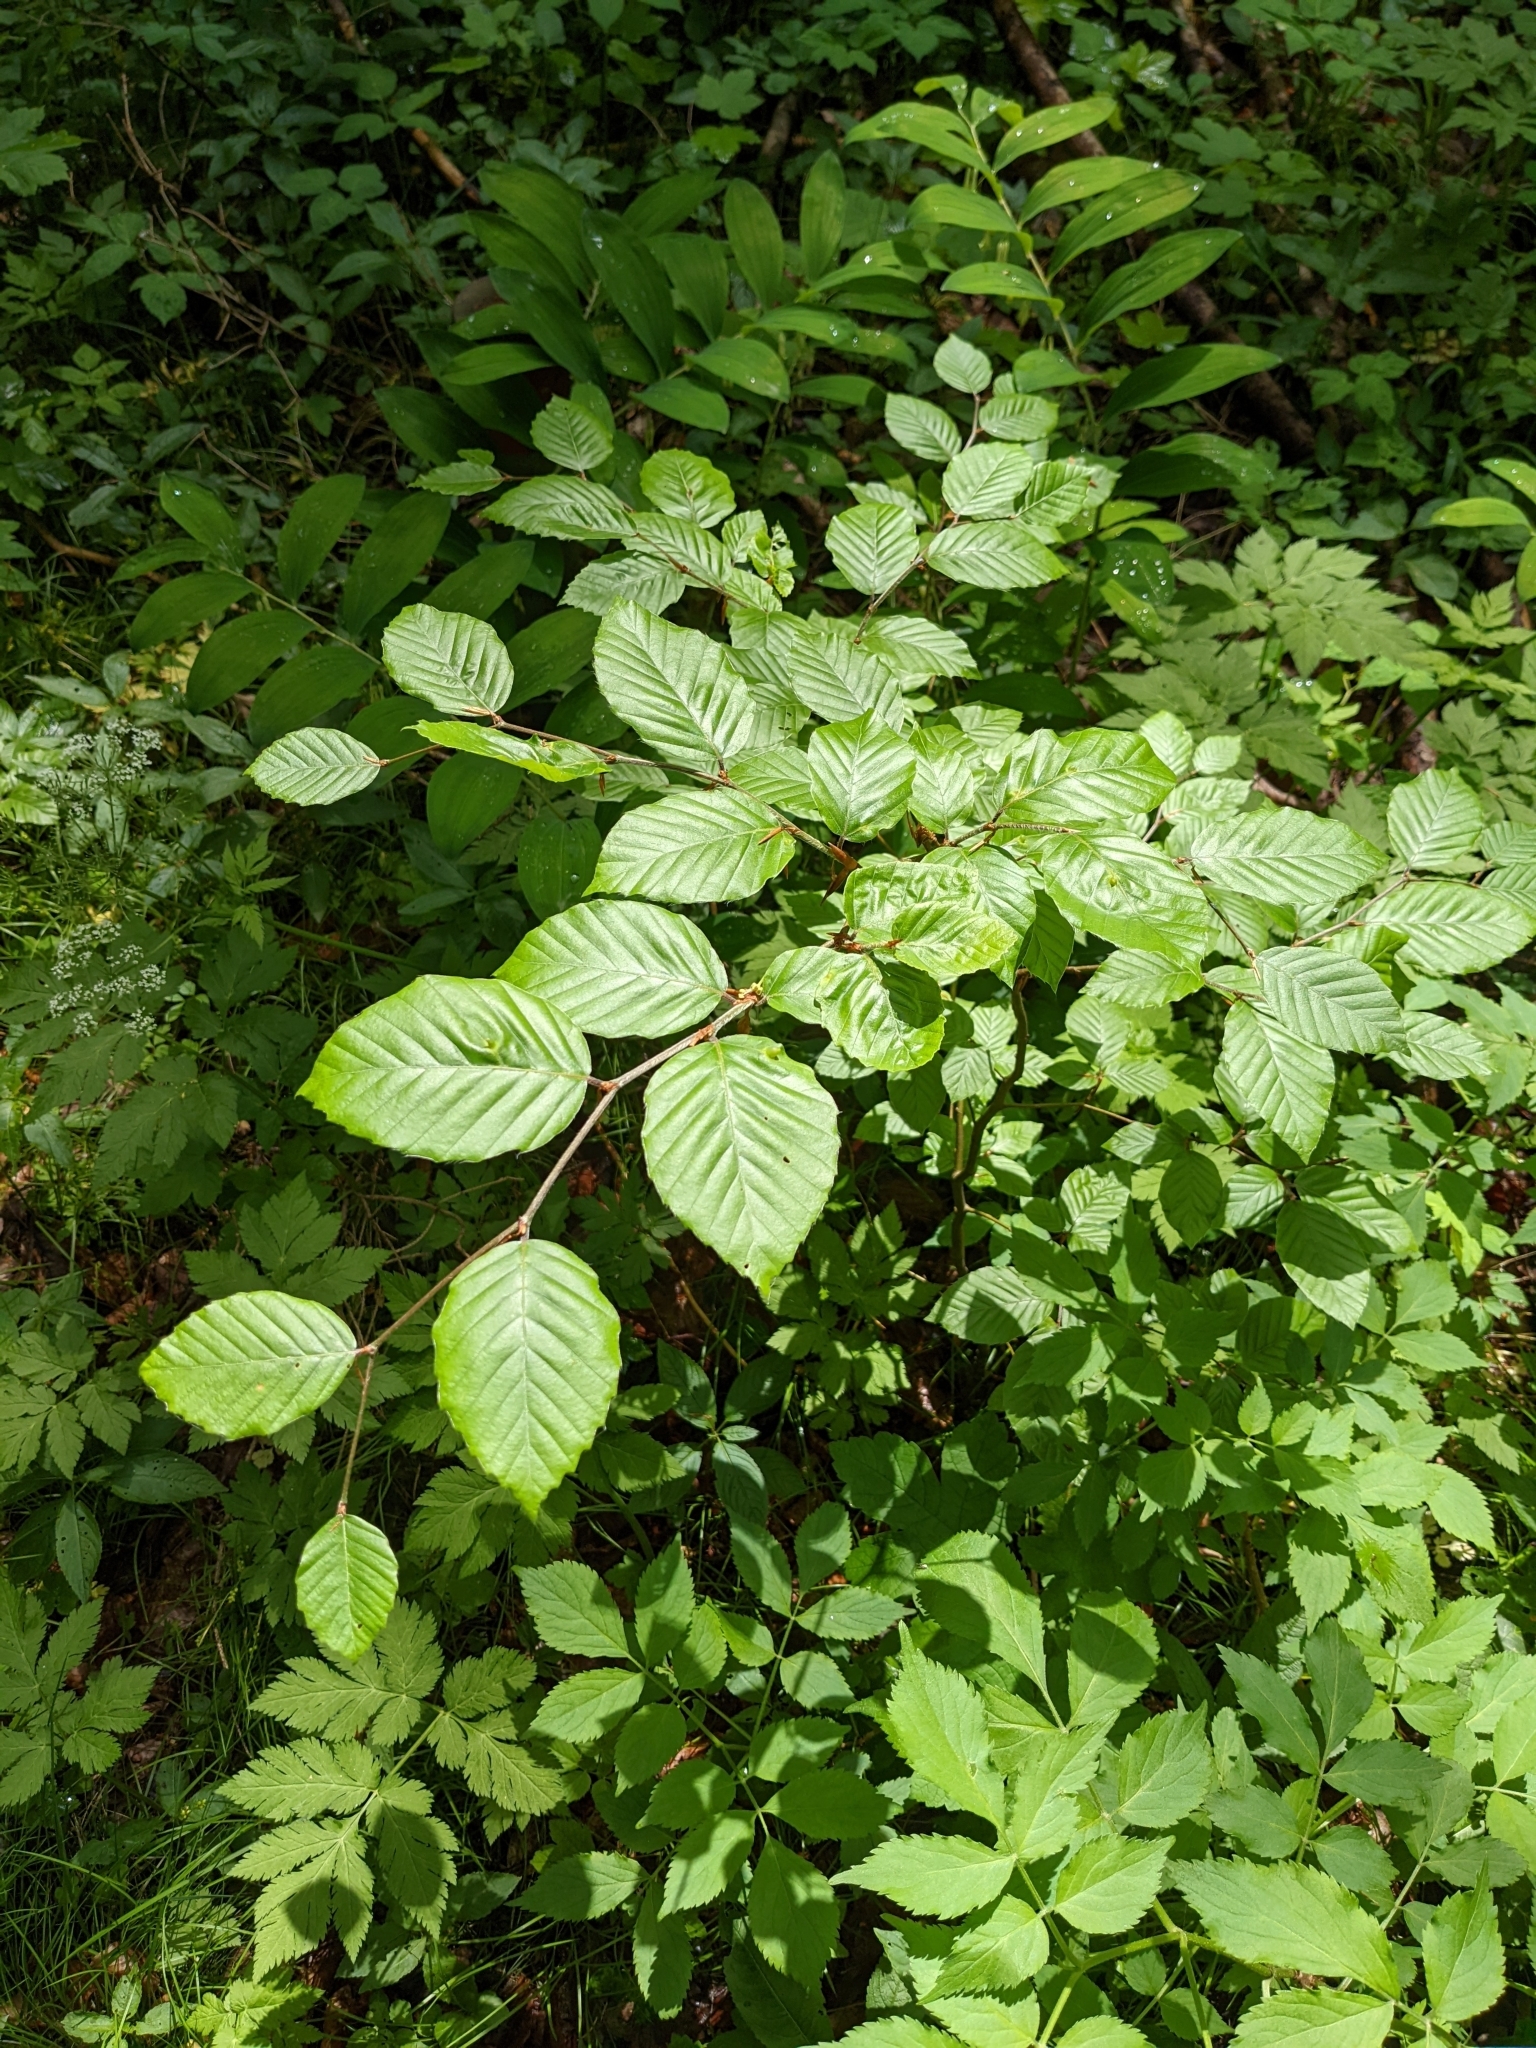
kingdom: Plantae
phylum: Tracheophyta
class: Magnoliopsida
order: Fagales
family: Betulaceae
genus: Carpinus
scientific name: Carpinus betulus
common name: Hornbeam
